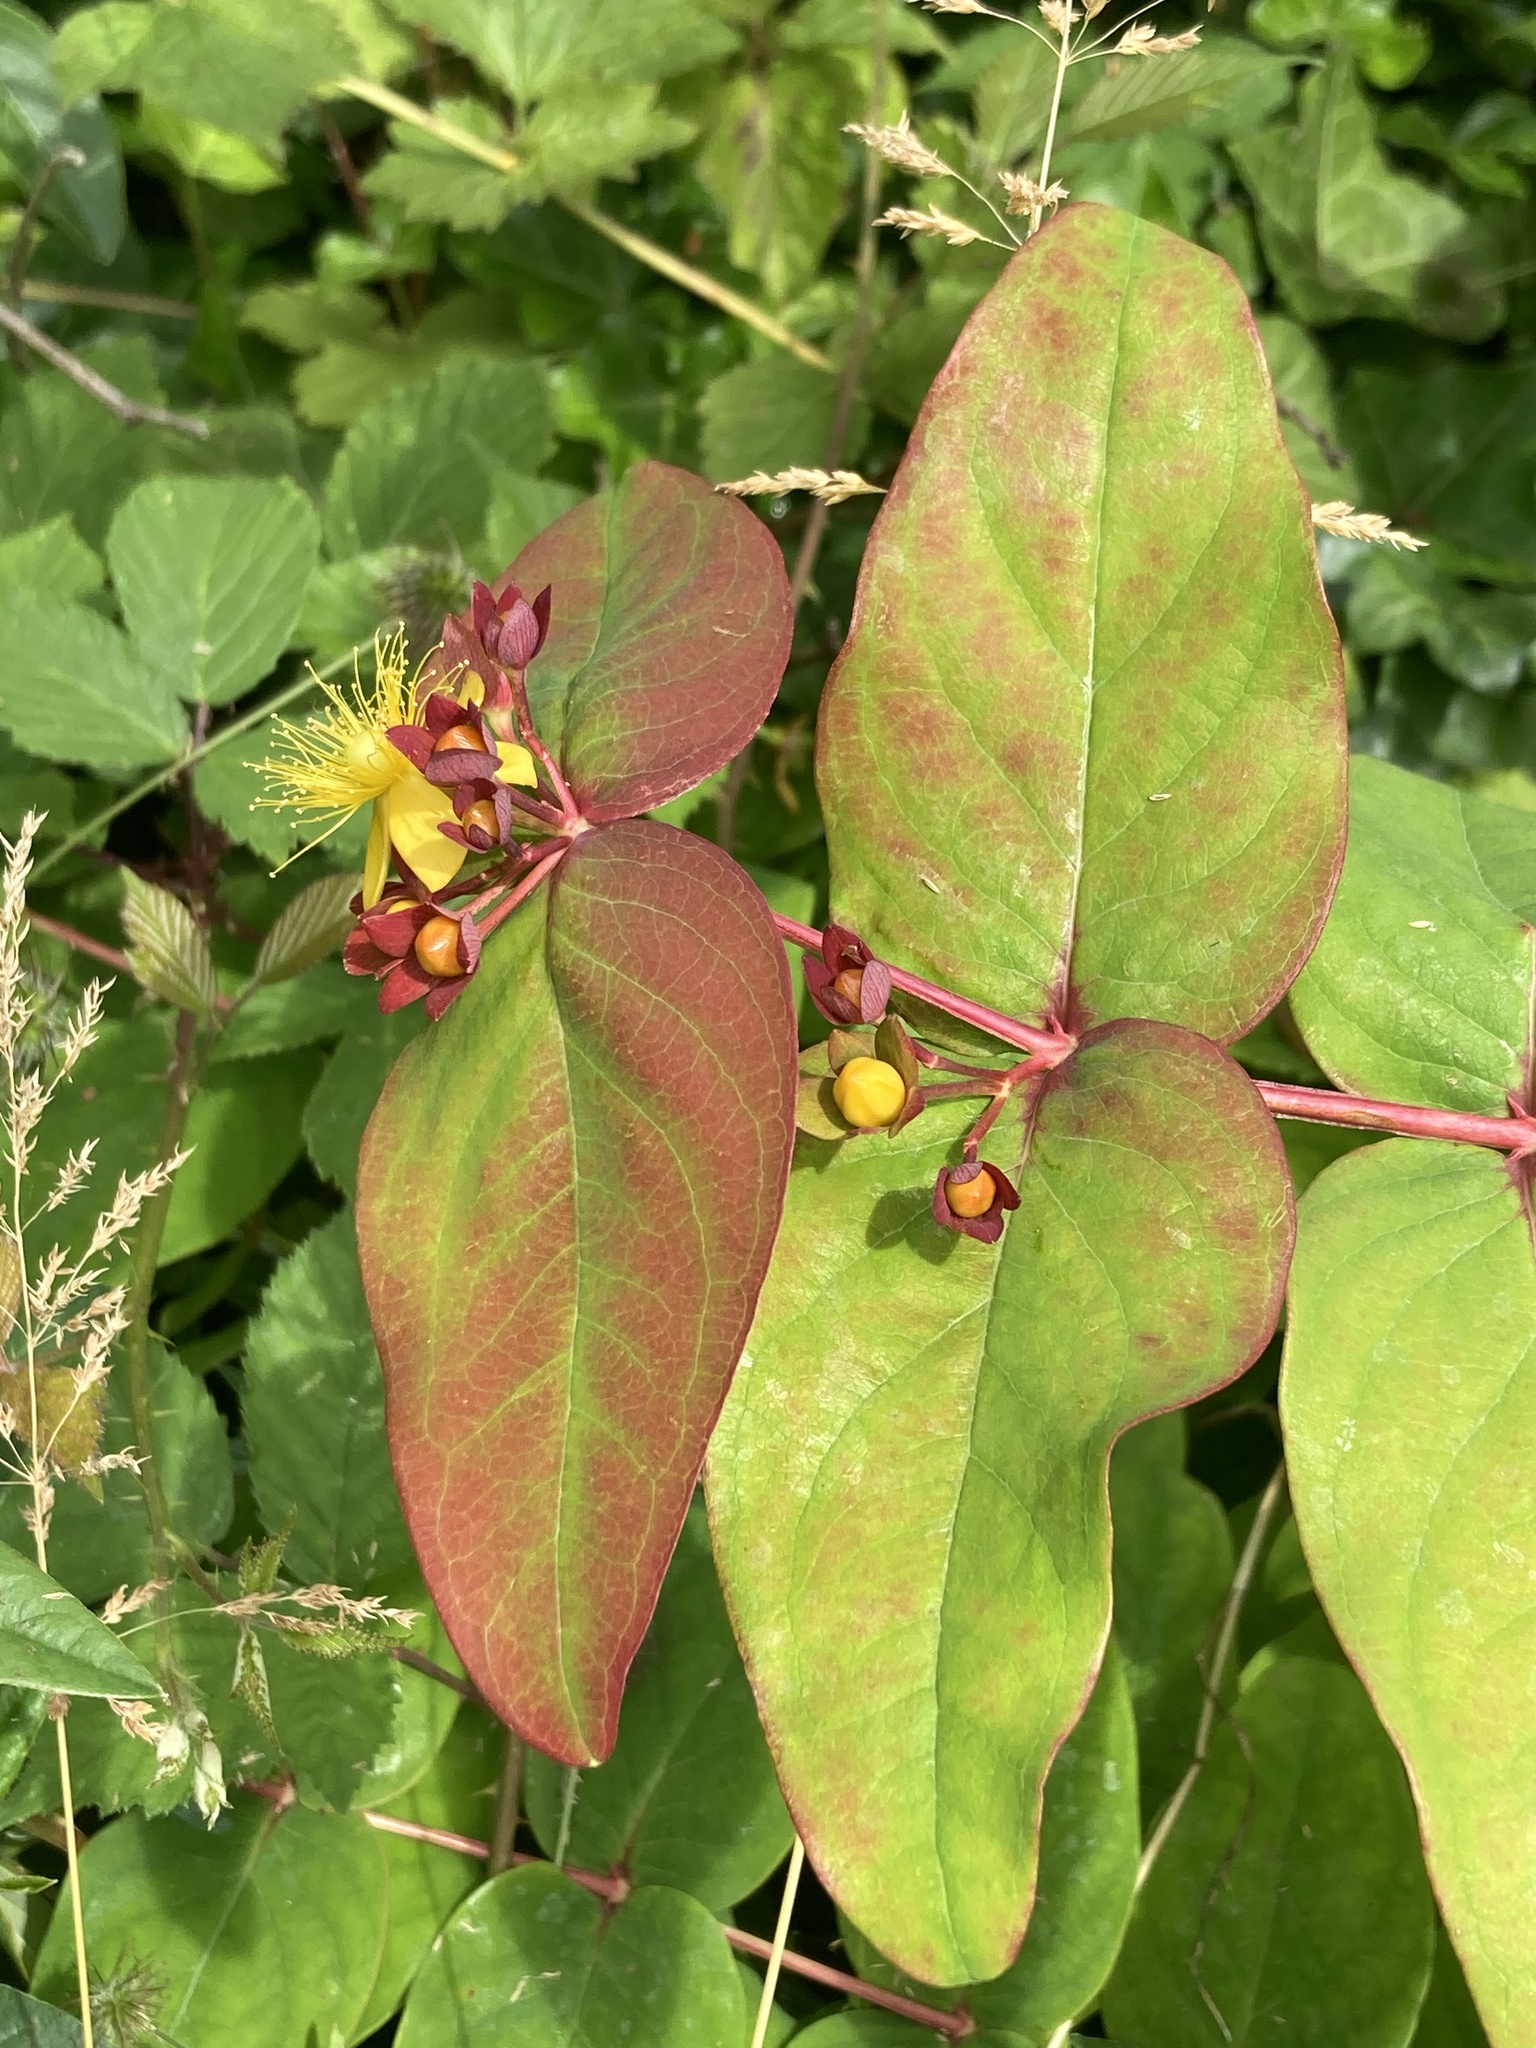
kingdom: Plantae
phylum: Tracheophyta
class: Magnoliopsida
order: Malpighiales
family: Hypericaceae
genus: Hypericum
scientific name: Hypericum androsaemum
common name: Sweet-amber
